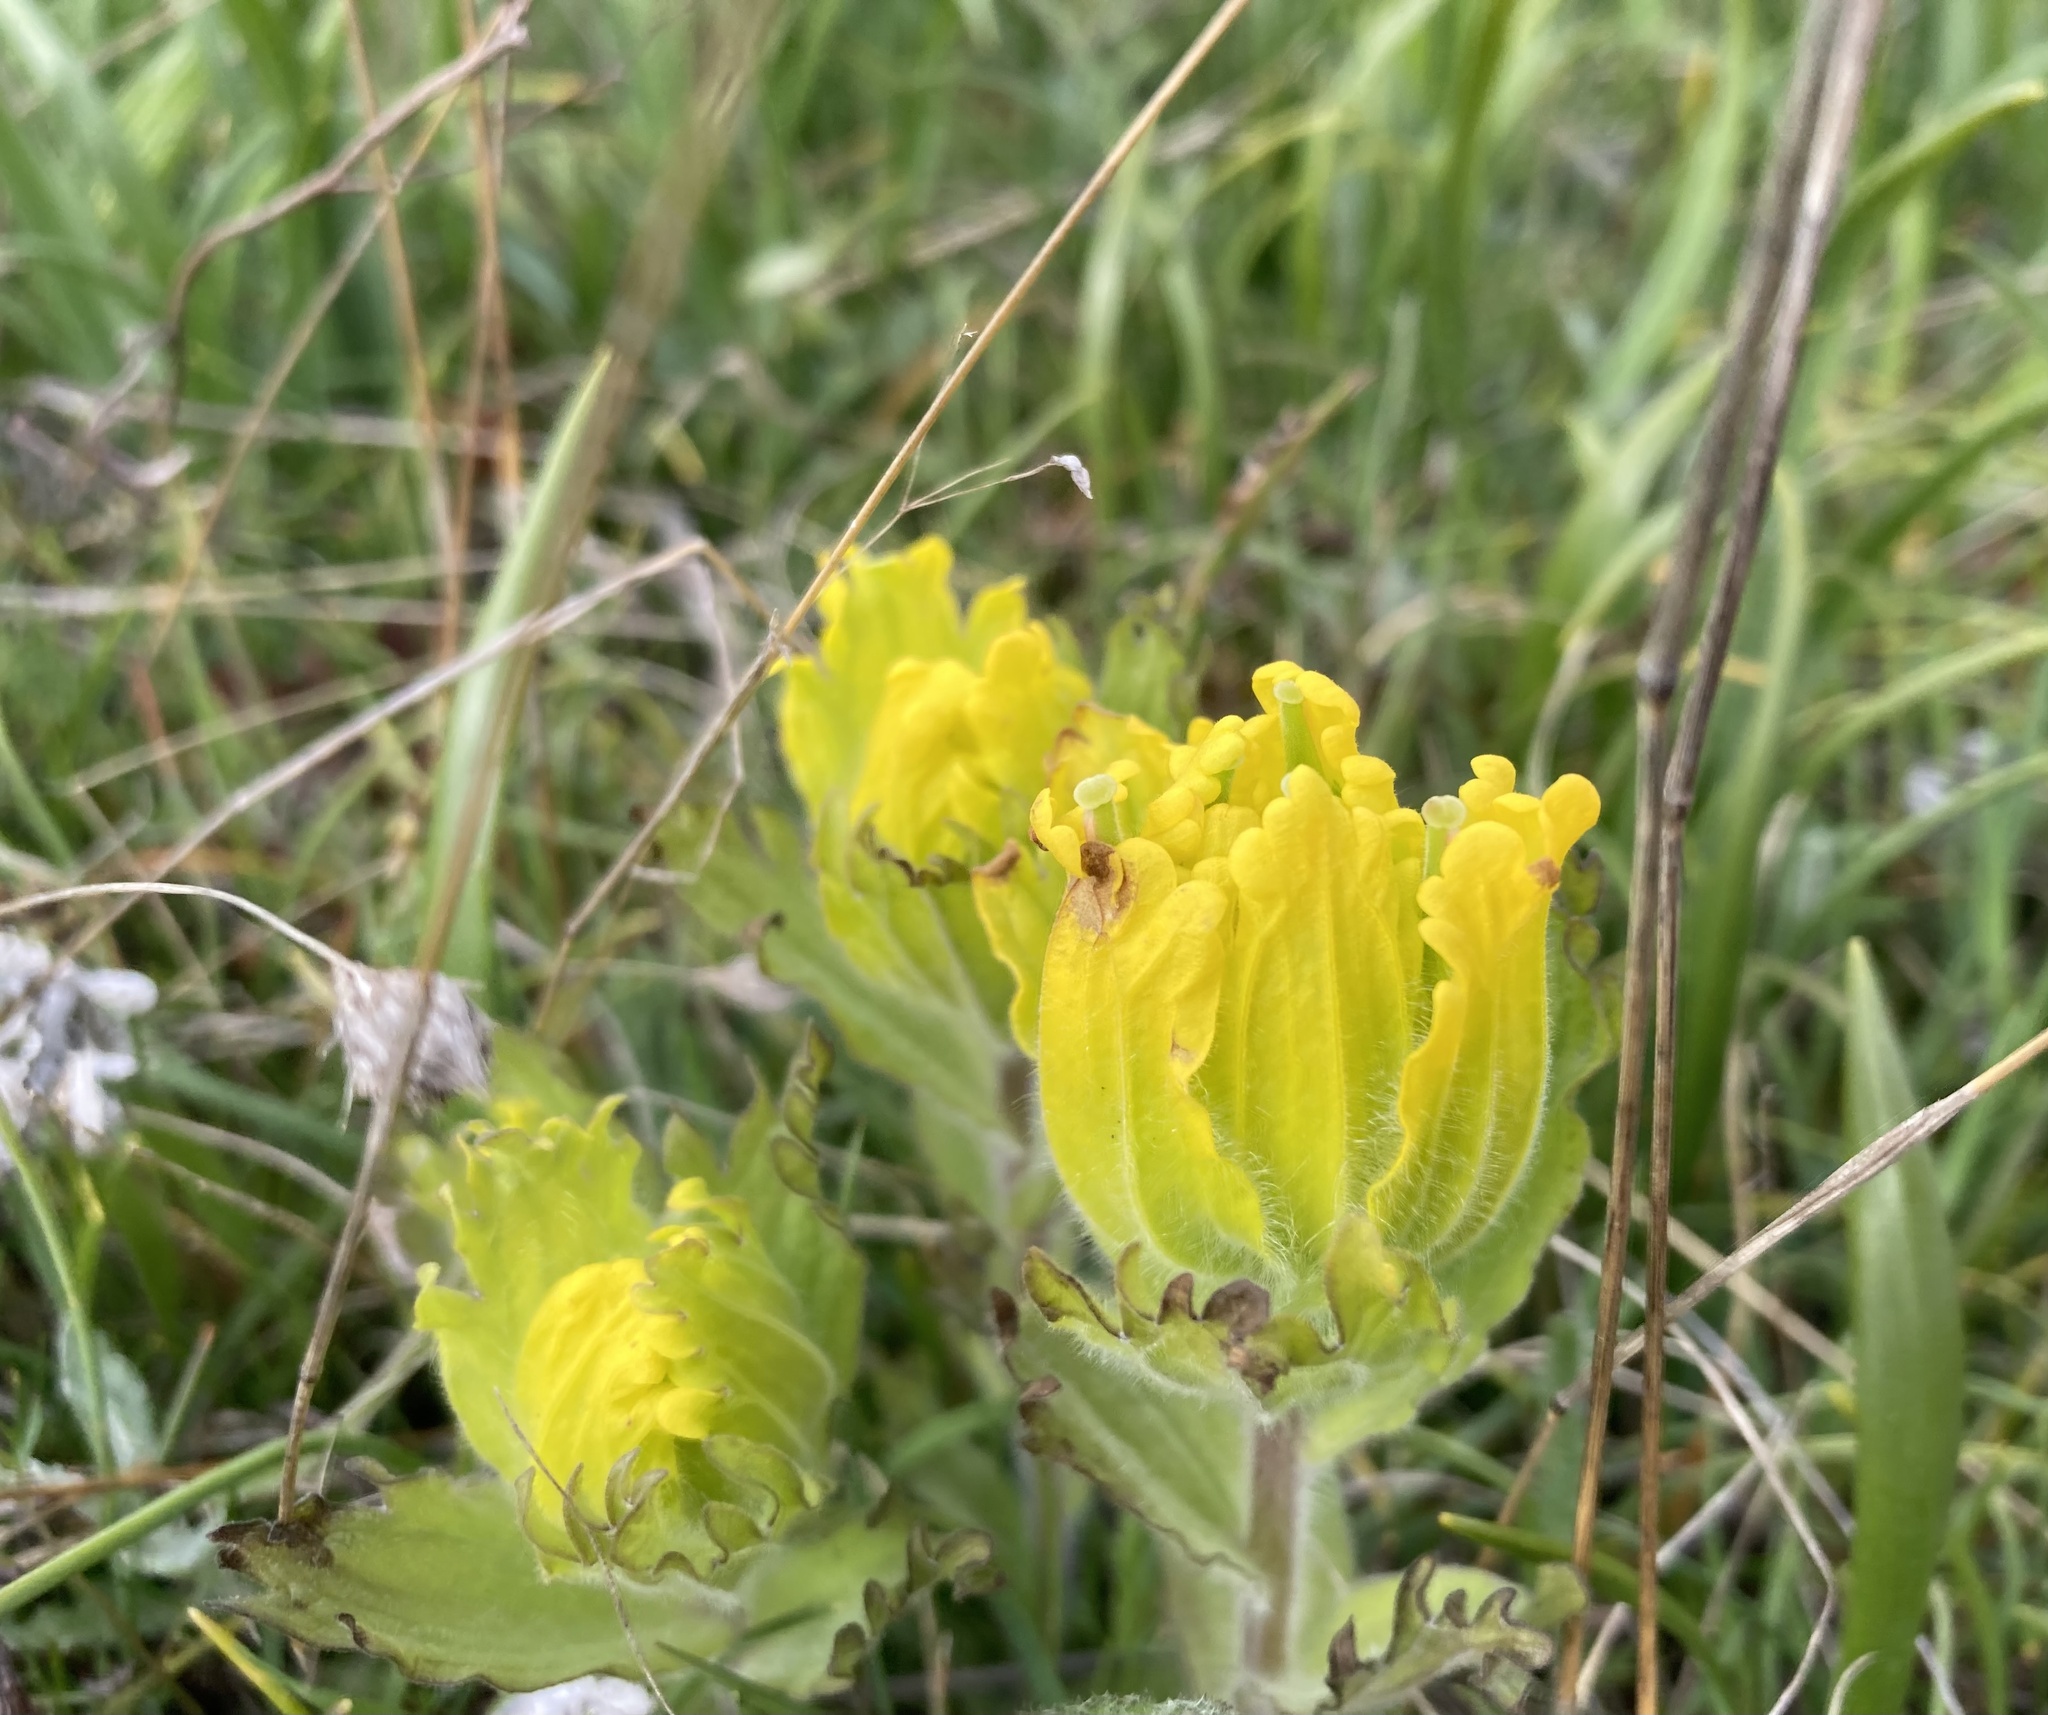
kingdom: Plantae
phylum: Tracheophyta
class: Magnoliopsida
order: Lamiales
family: Orobanchaceae
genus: Castilleja
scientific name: Castilleja levisecta
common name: Golden paintbrush
